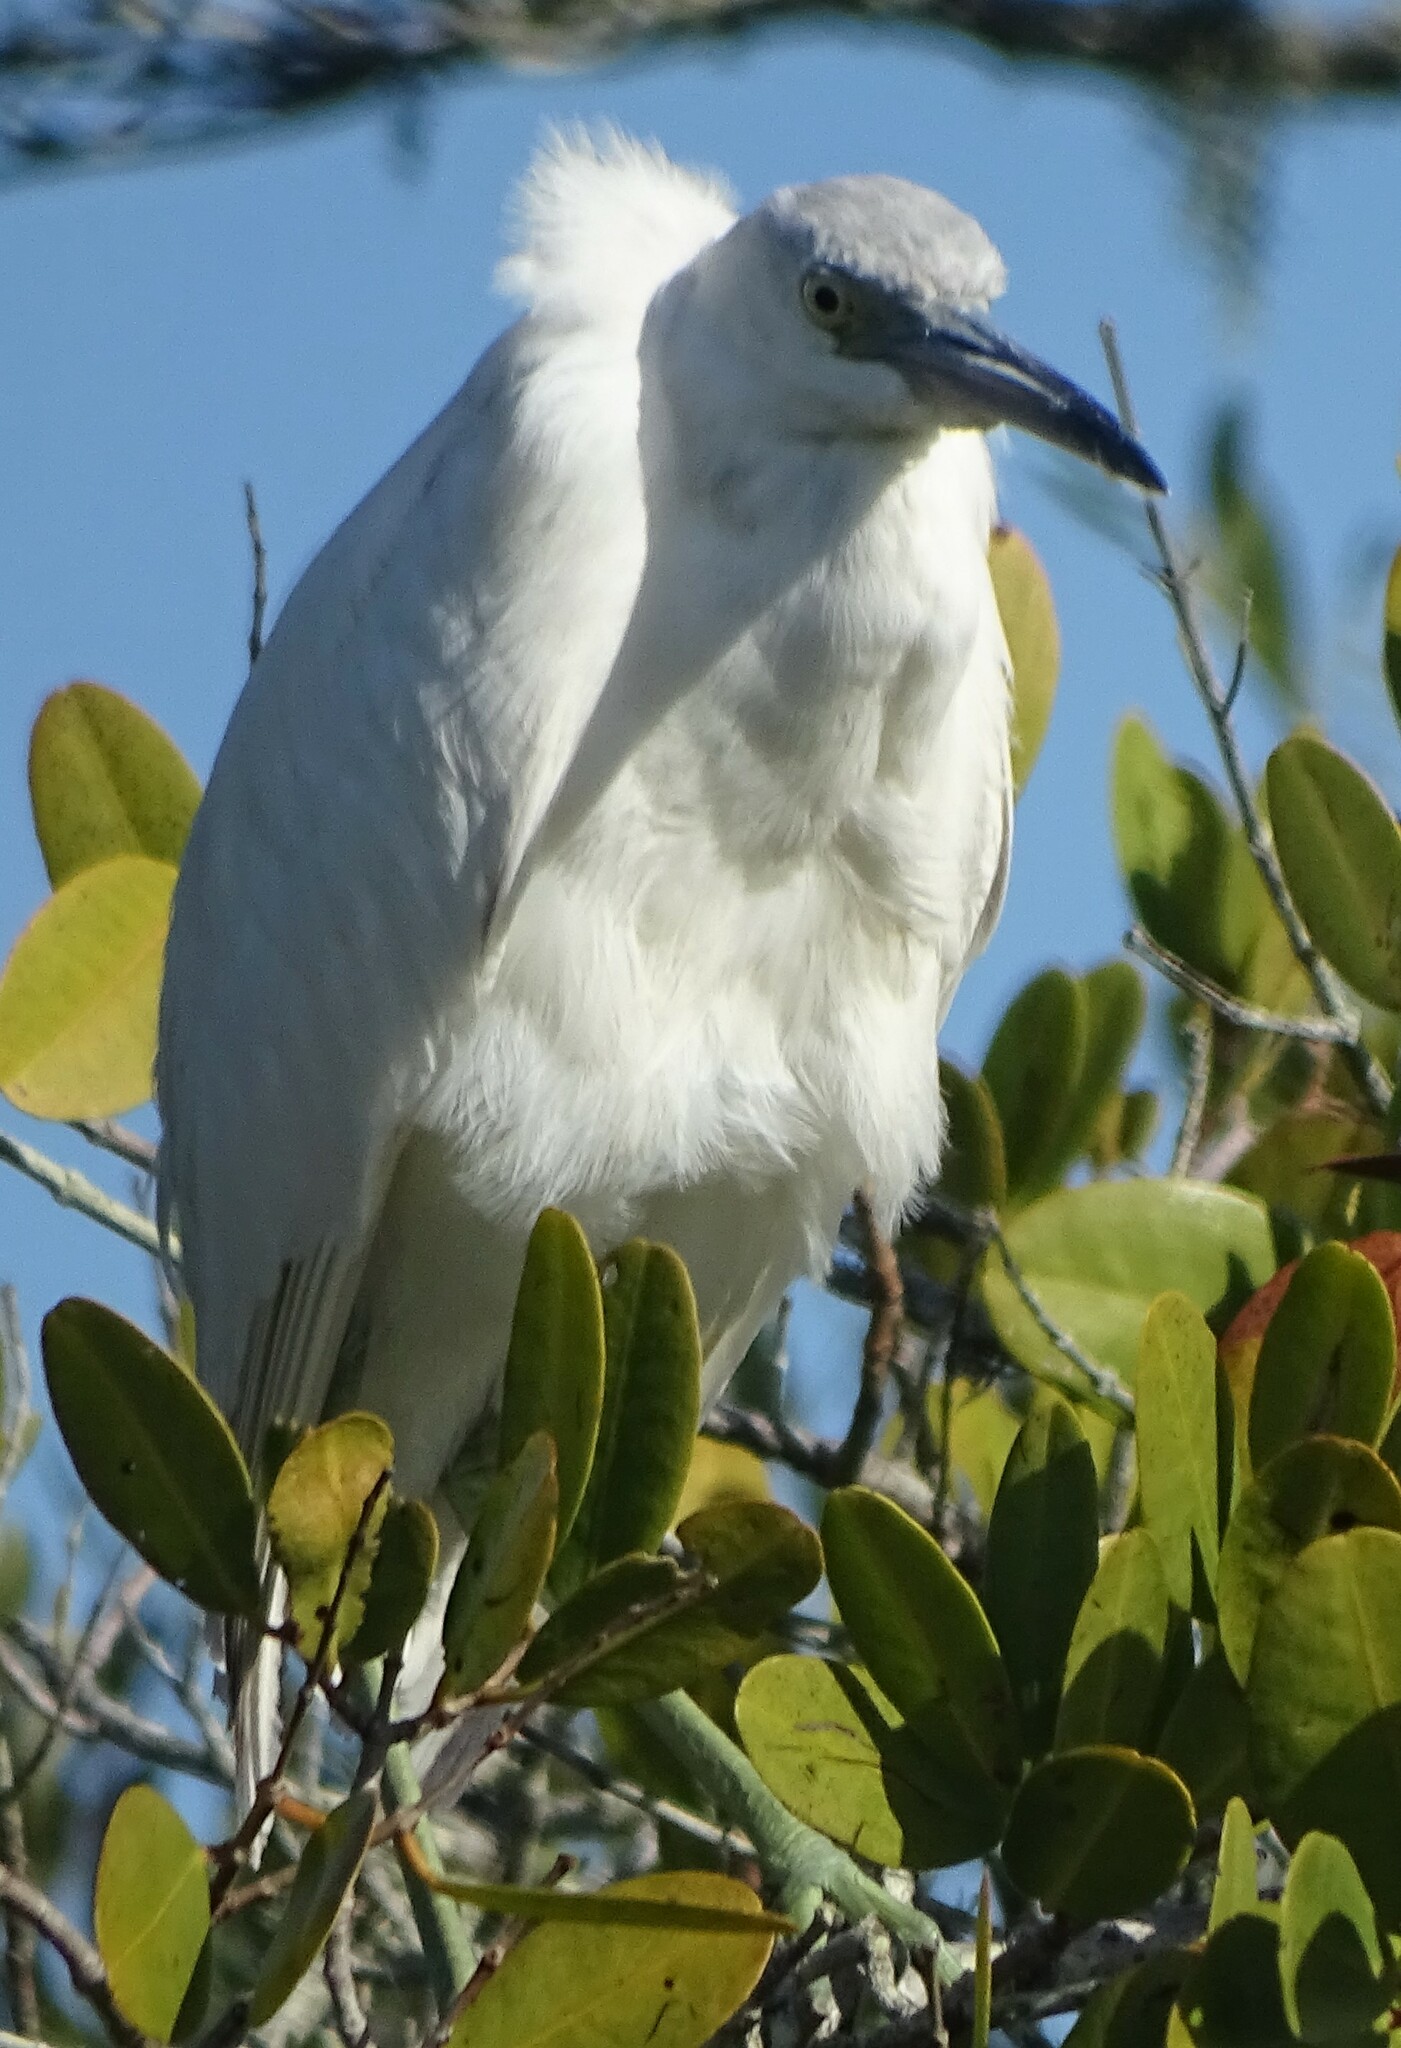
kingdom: Animalia
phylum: Chordata
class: Aves
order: Pelecaniformes
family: Ardeidae
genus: Egretta
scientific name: Egretta caerulea
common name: Little blue heron
